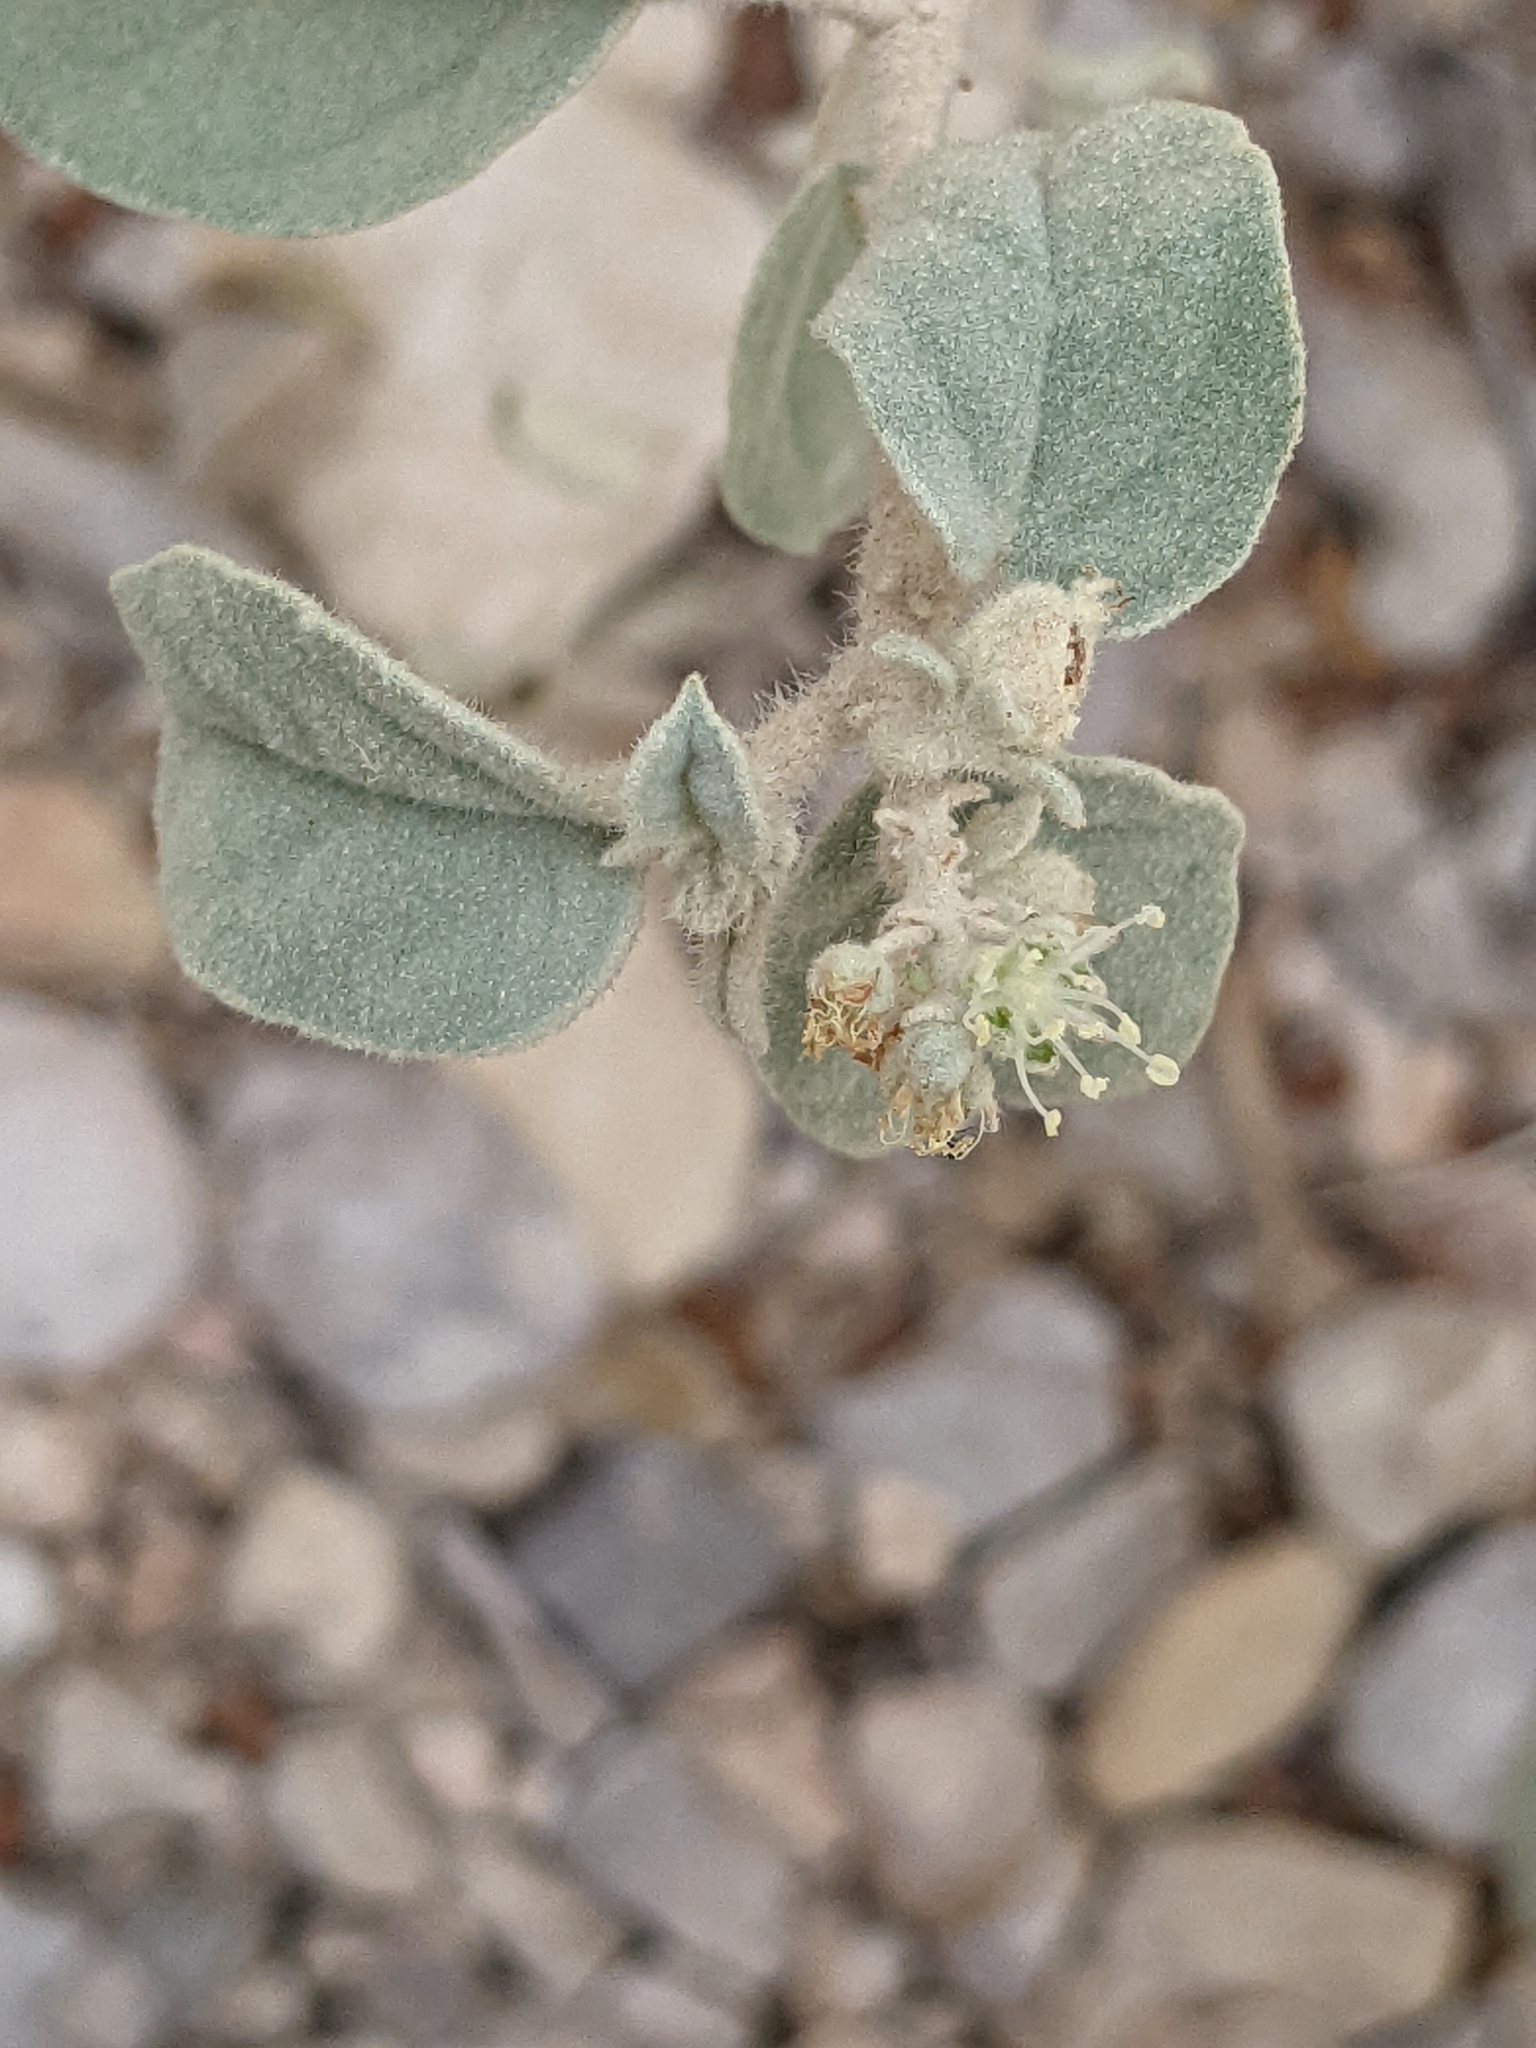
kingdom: Plantae
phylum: Tracheophyta
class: Magnoliopsida
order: Malpighiales
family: Euphorbiaceae
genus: Croton
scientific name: Croton pottsii
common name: Leatherweed
